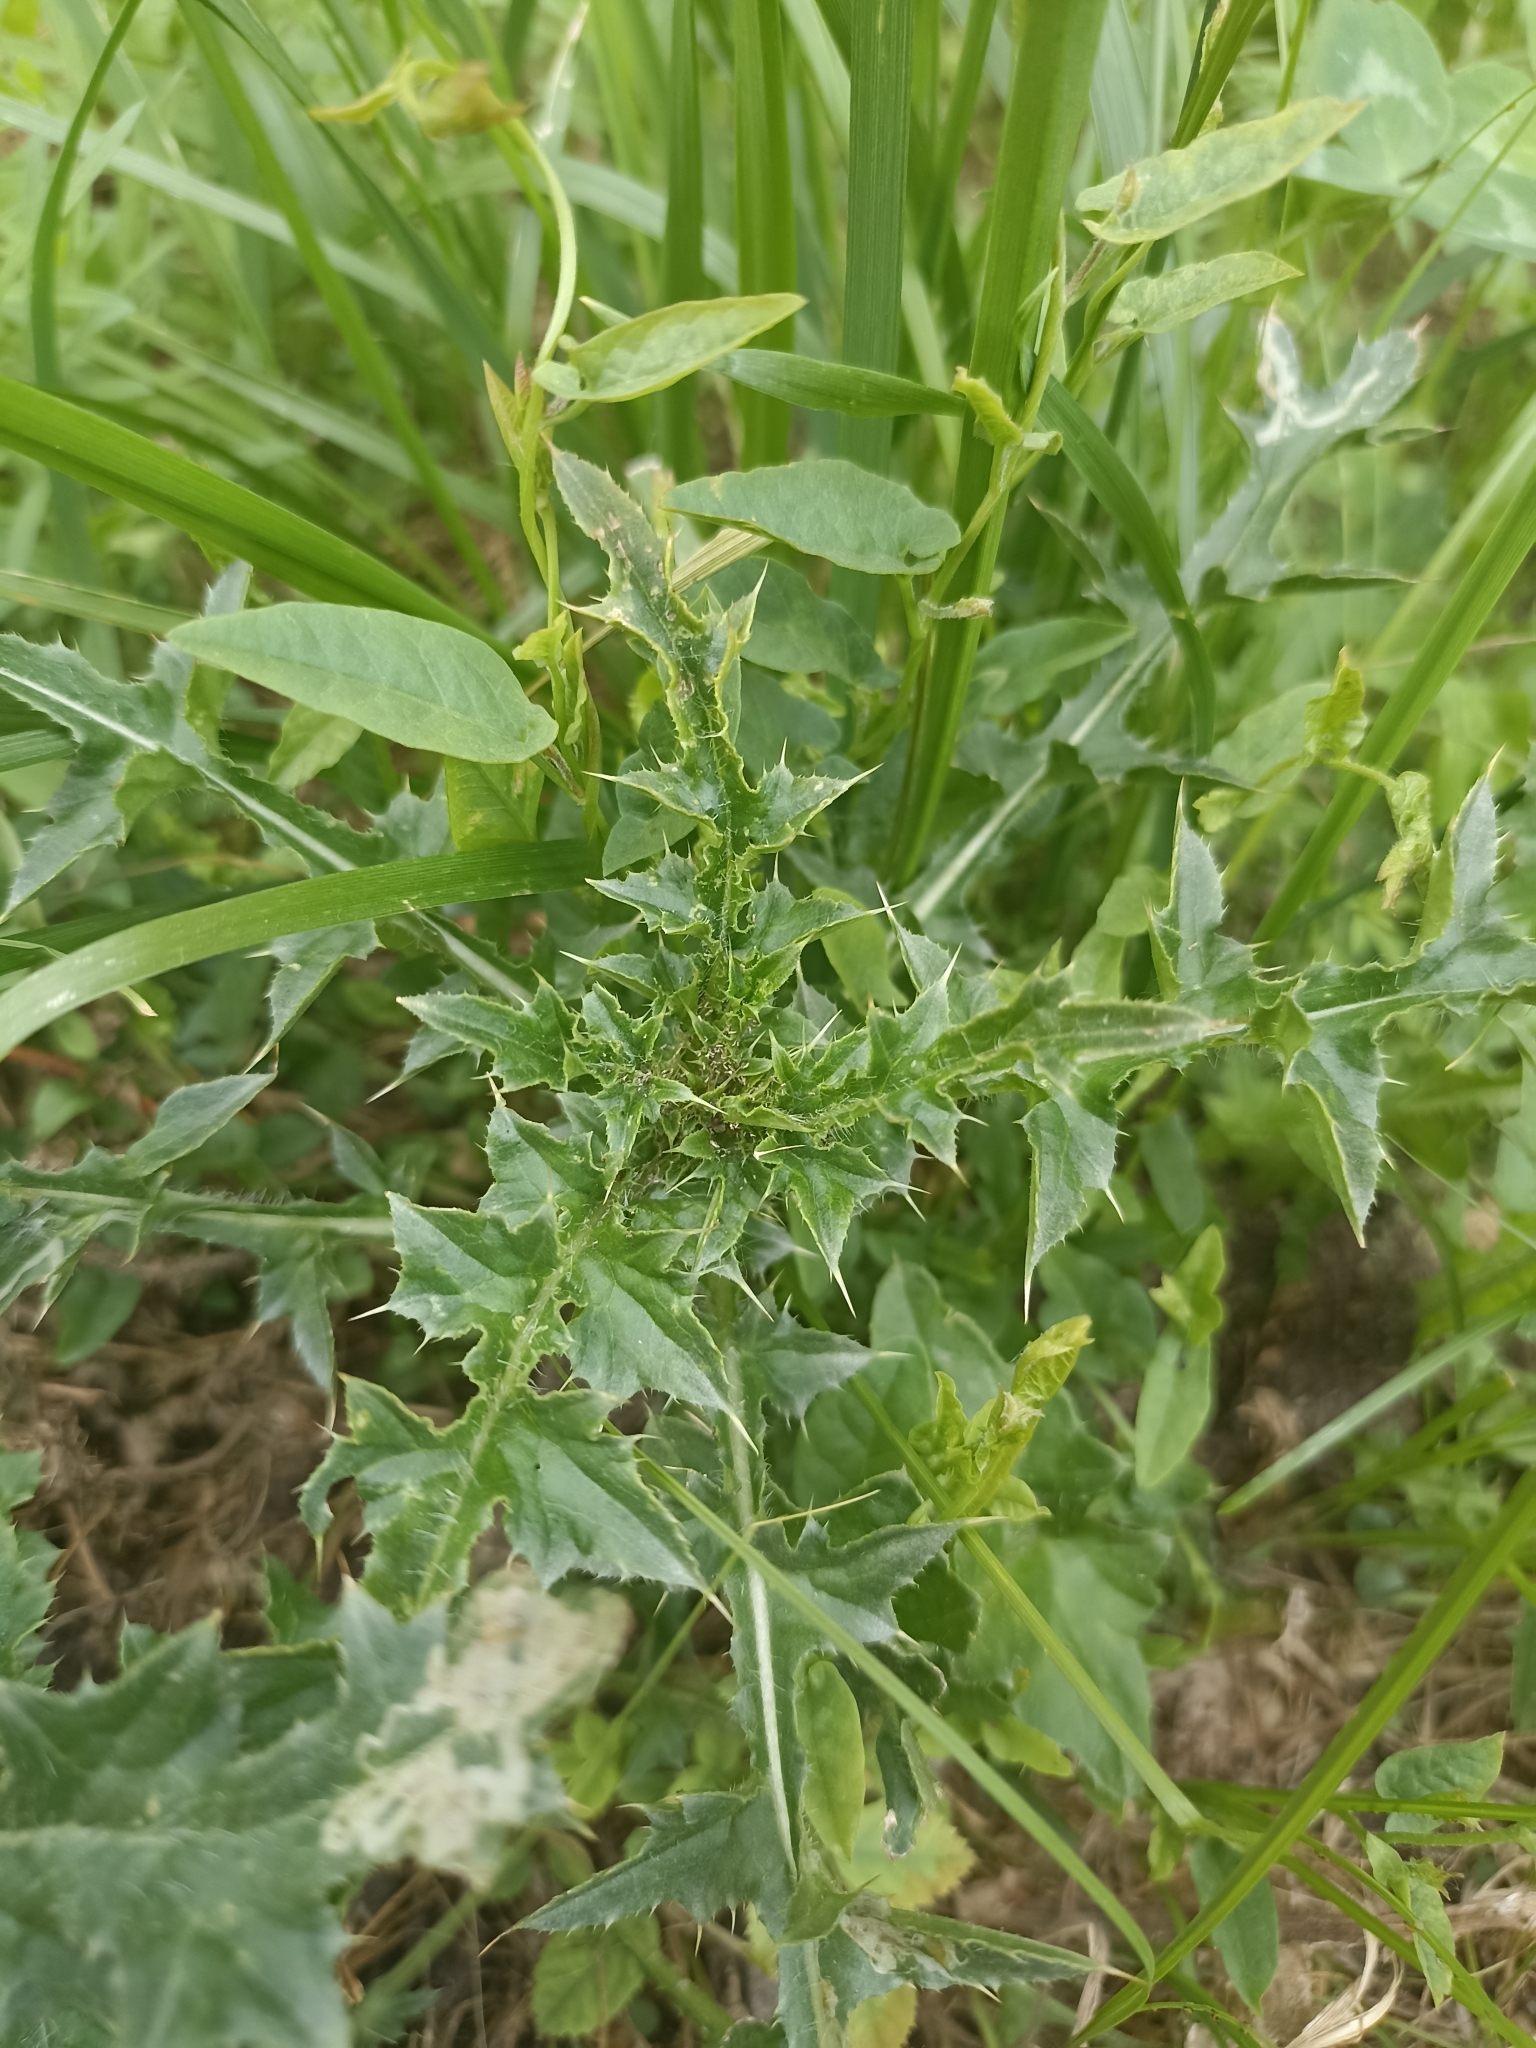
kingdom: Plantae
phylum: Tracheophyta
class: Magnoliopsida
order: Asterales
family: Asteraceae
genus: Carduus
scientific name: Carduus acanthoides
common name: Plumeless thistle
